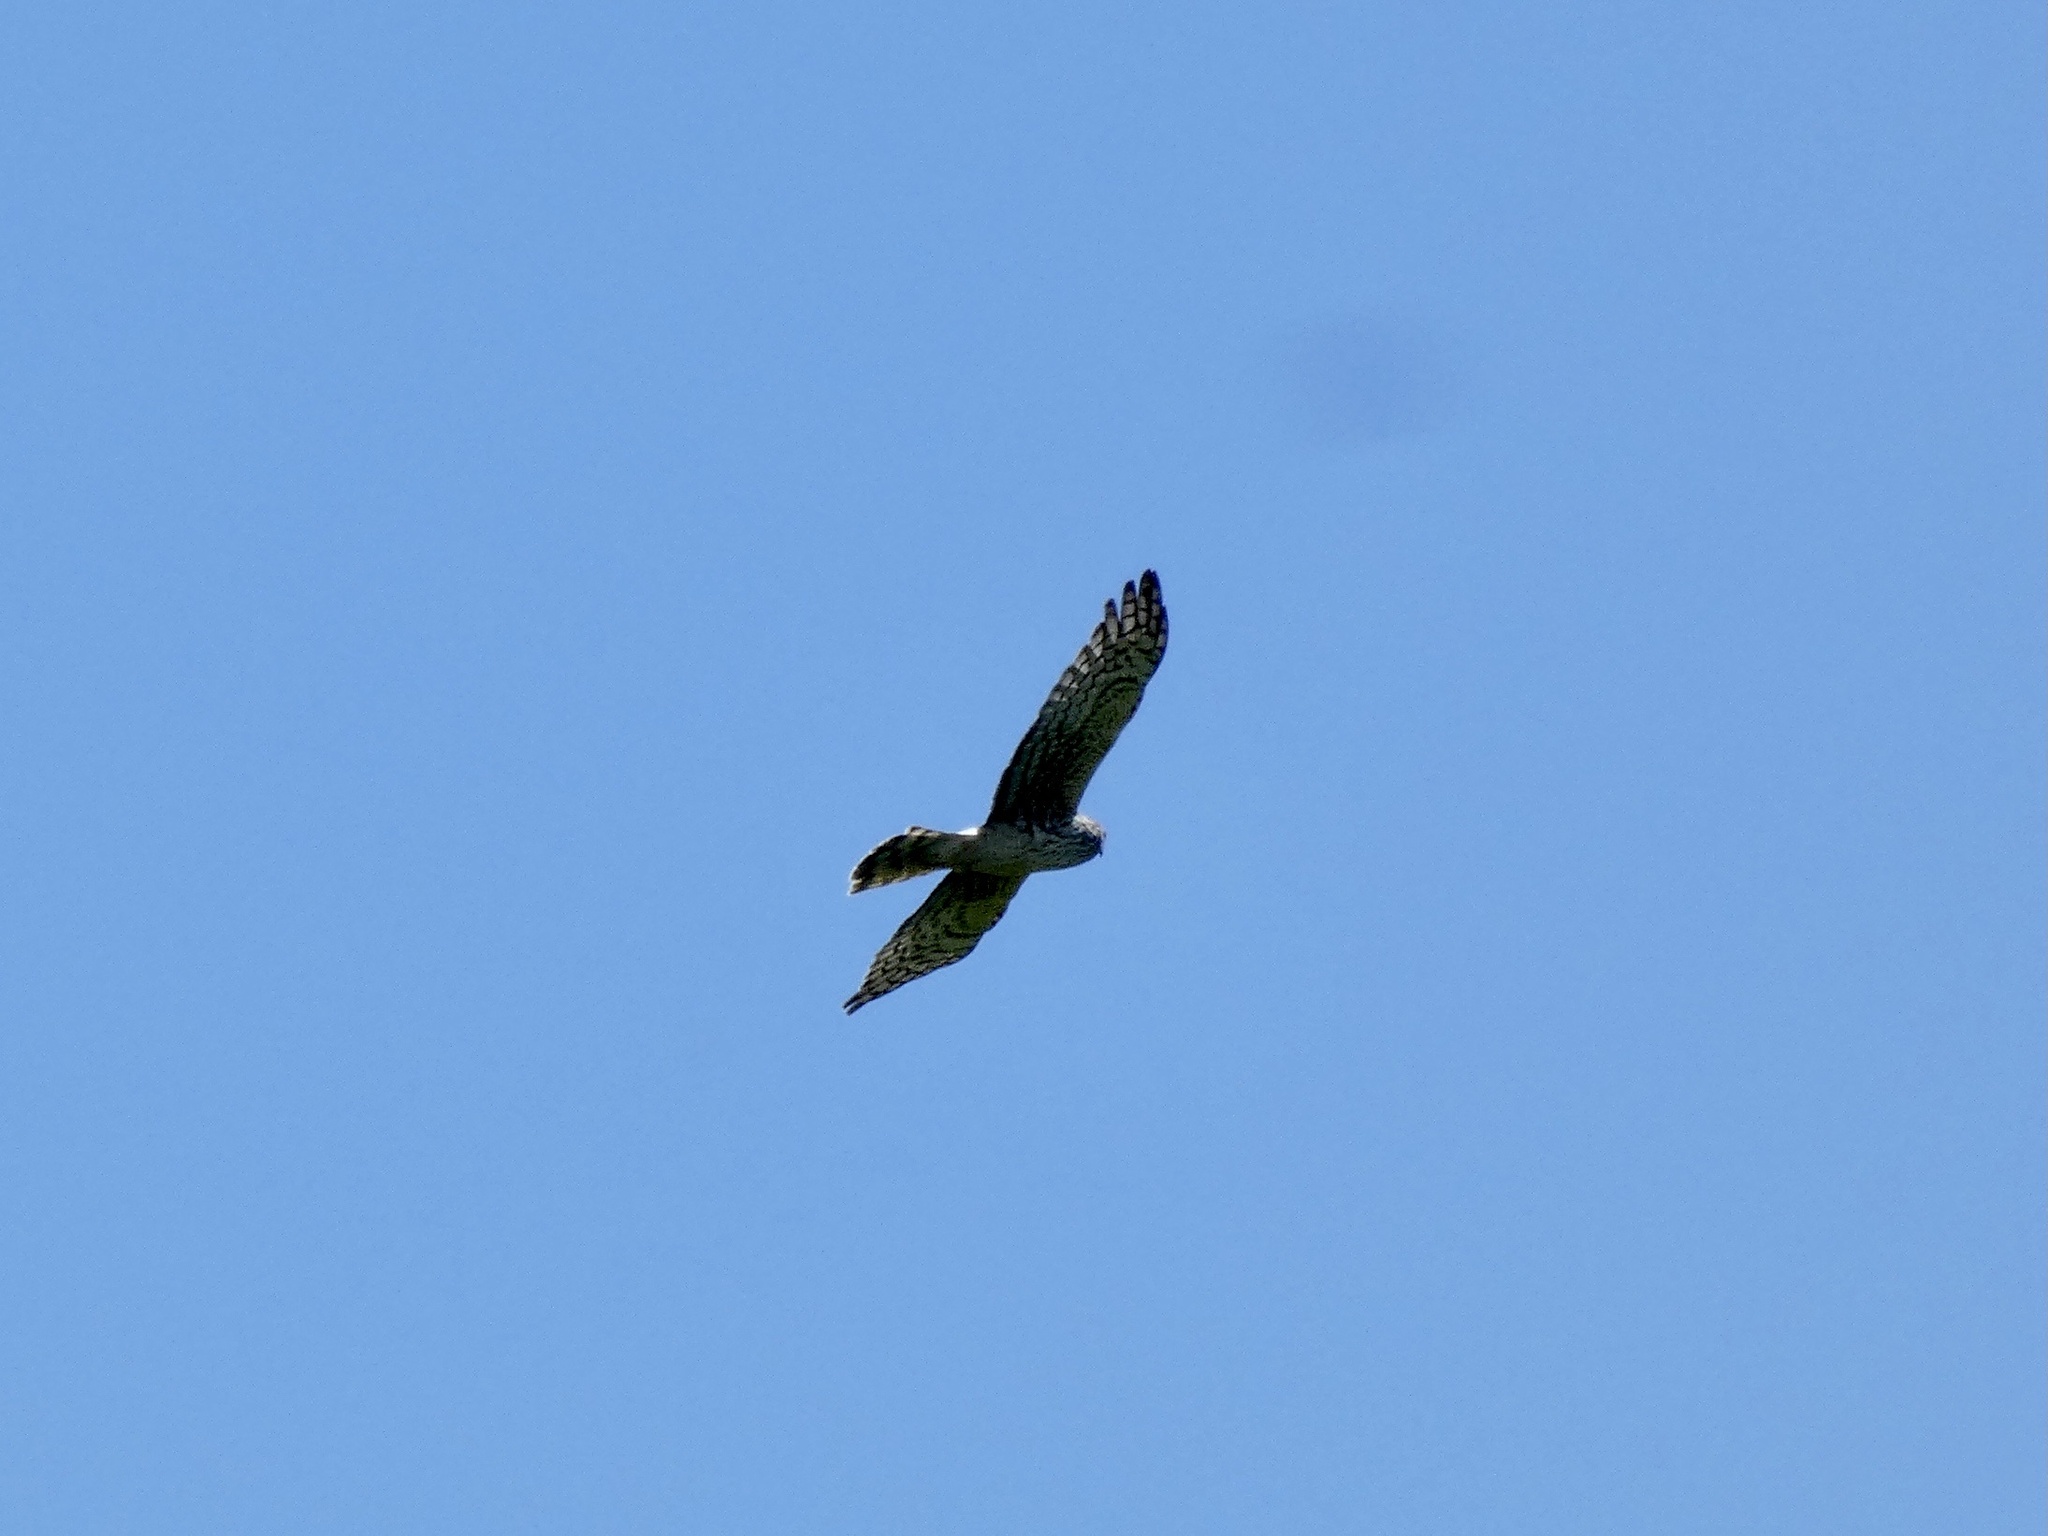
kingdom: Animalia
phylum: Chordata
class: Aves
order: Accipitriformes
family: Accipitridae
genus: Circus
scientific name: Circus cyaneus
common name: Hen harrier
